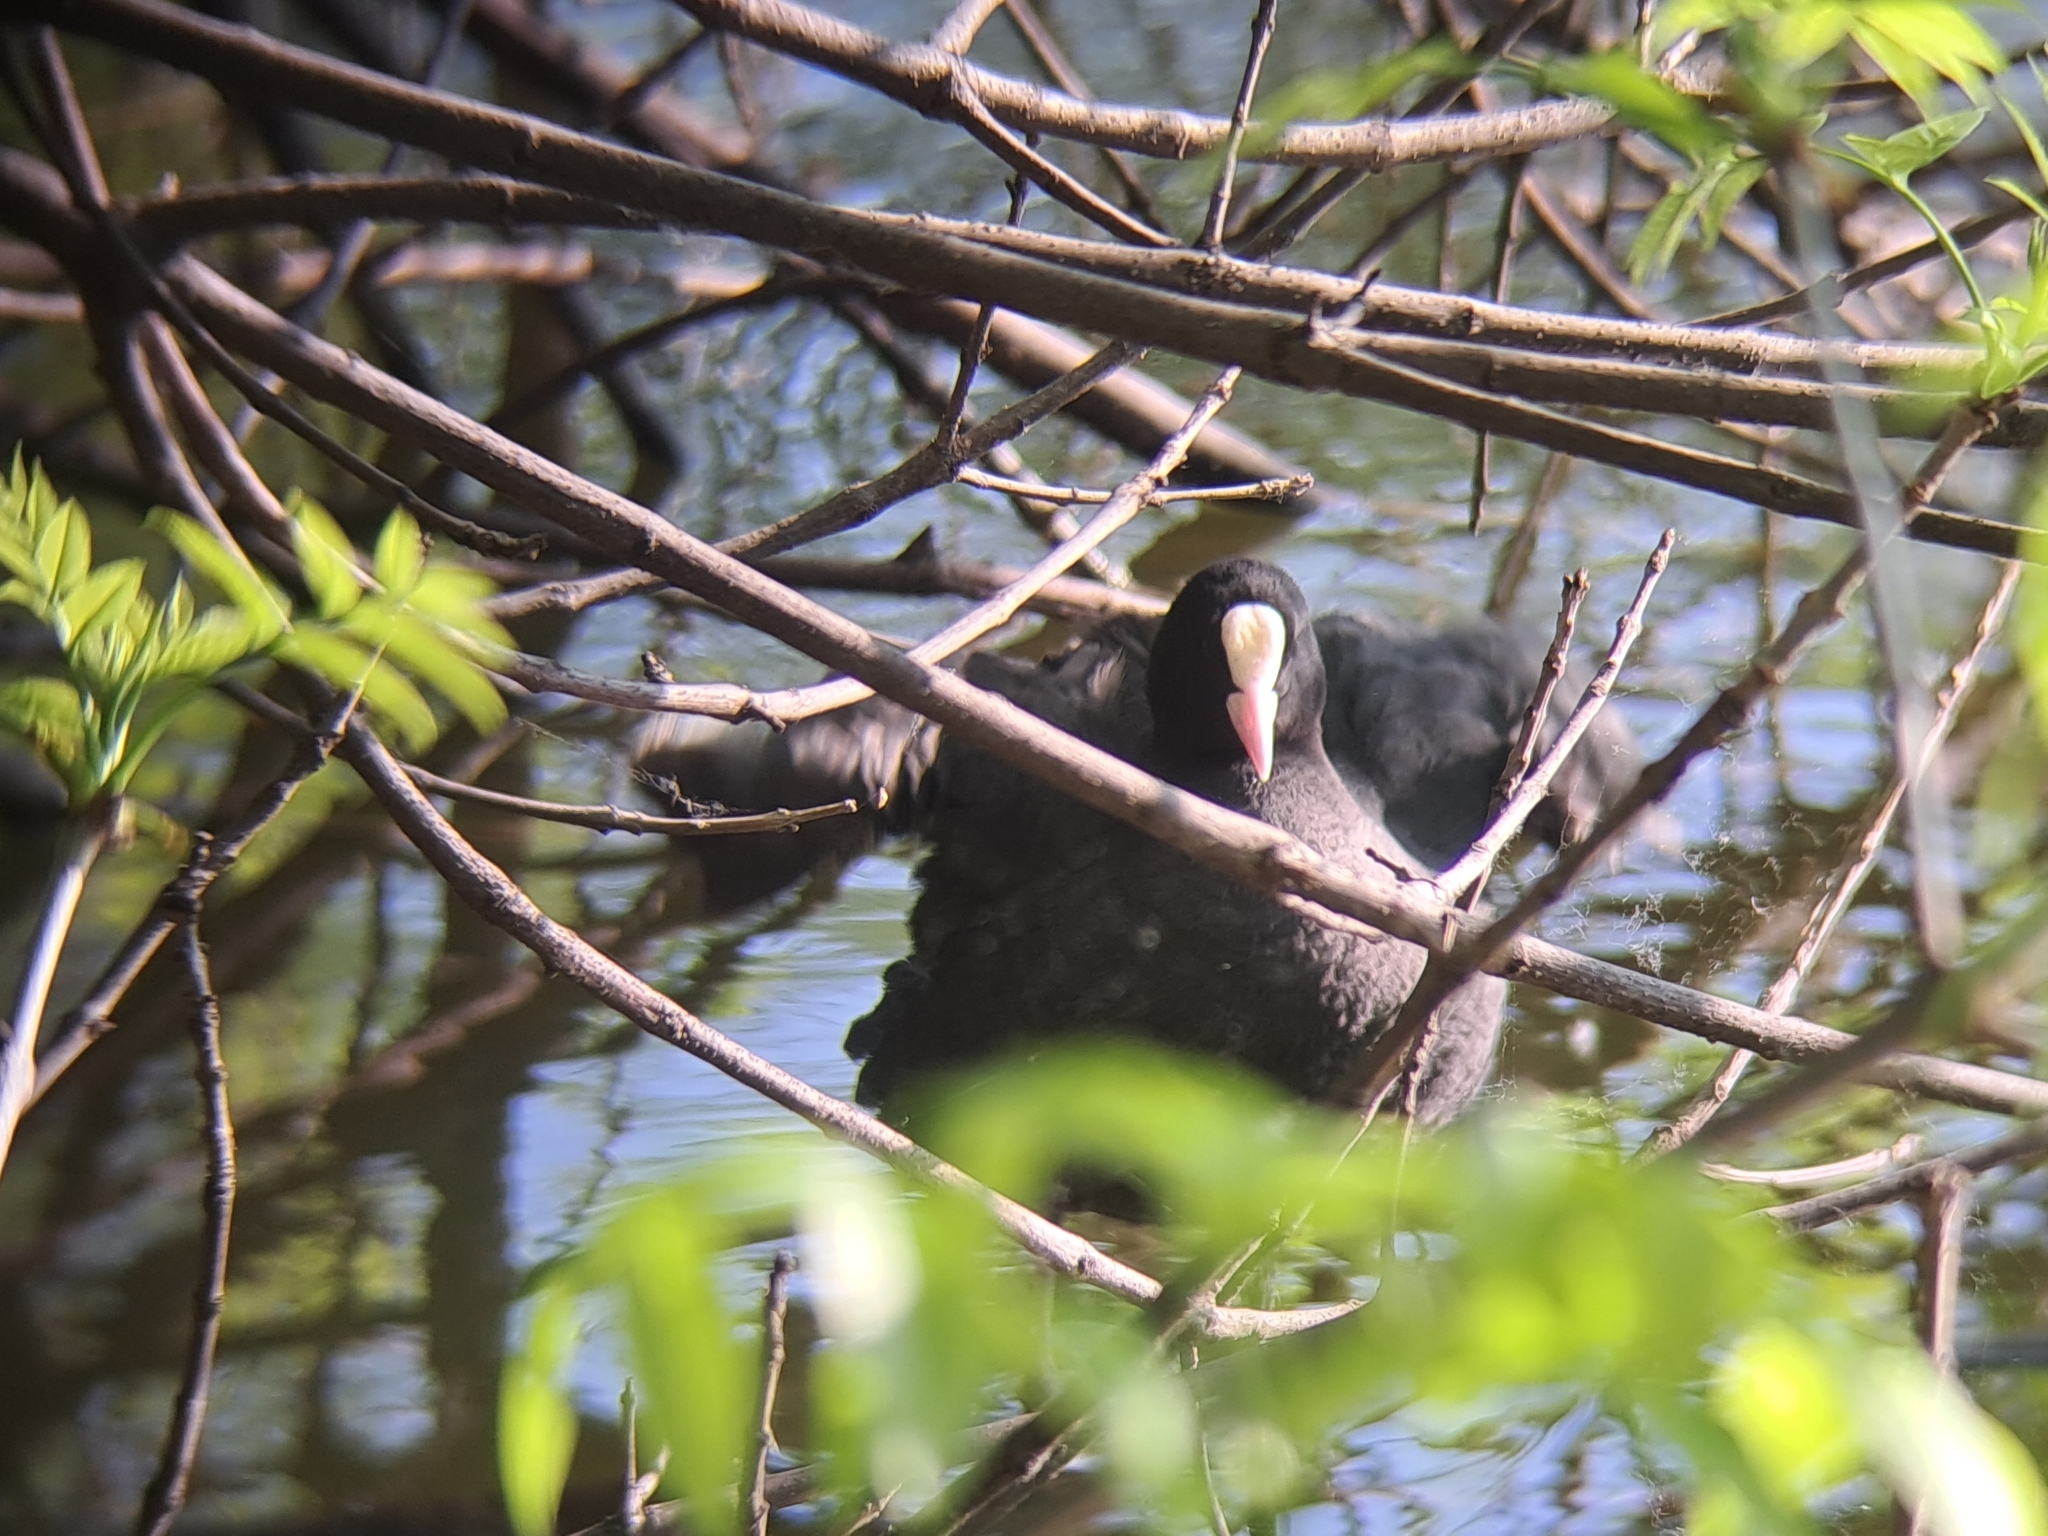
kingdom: Animalia
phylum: Chordata
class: Aves
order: Gruiformes
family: Rallidae
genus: Fulica
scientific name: Fulica atra
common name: Eurasian coot
